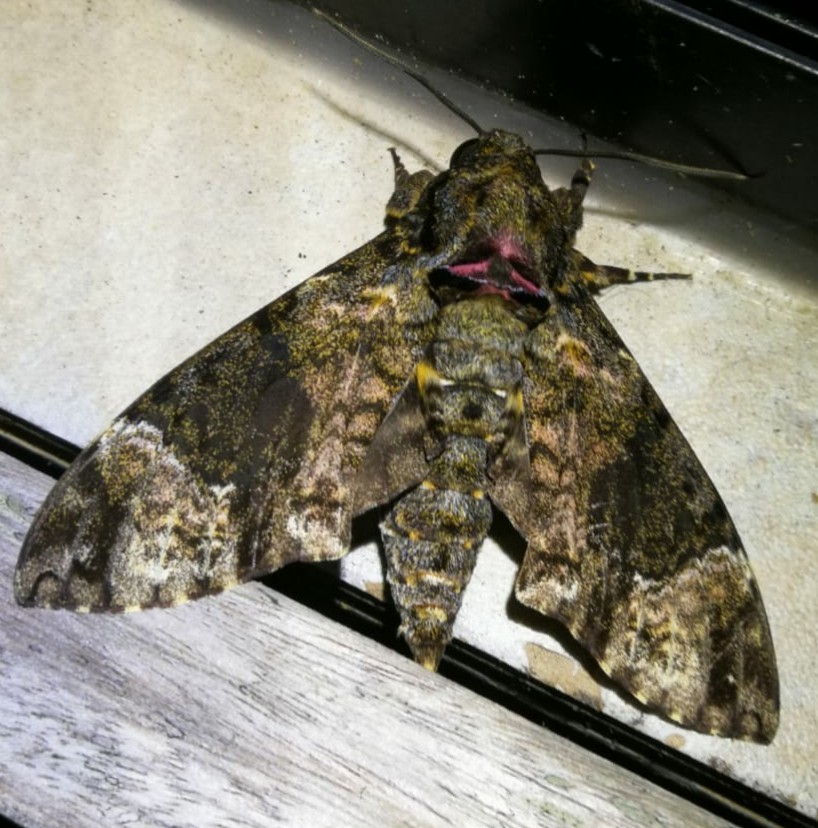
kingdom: Animalia
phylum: Arthropoda
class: Insecta
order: Lepidoptera
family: Sphingidae
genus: Coelonia
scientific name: Coelonia fulvinotata
